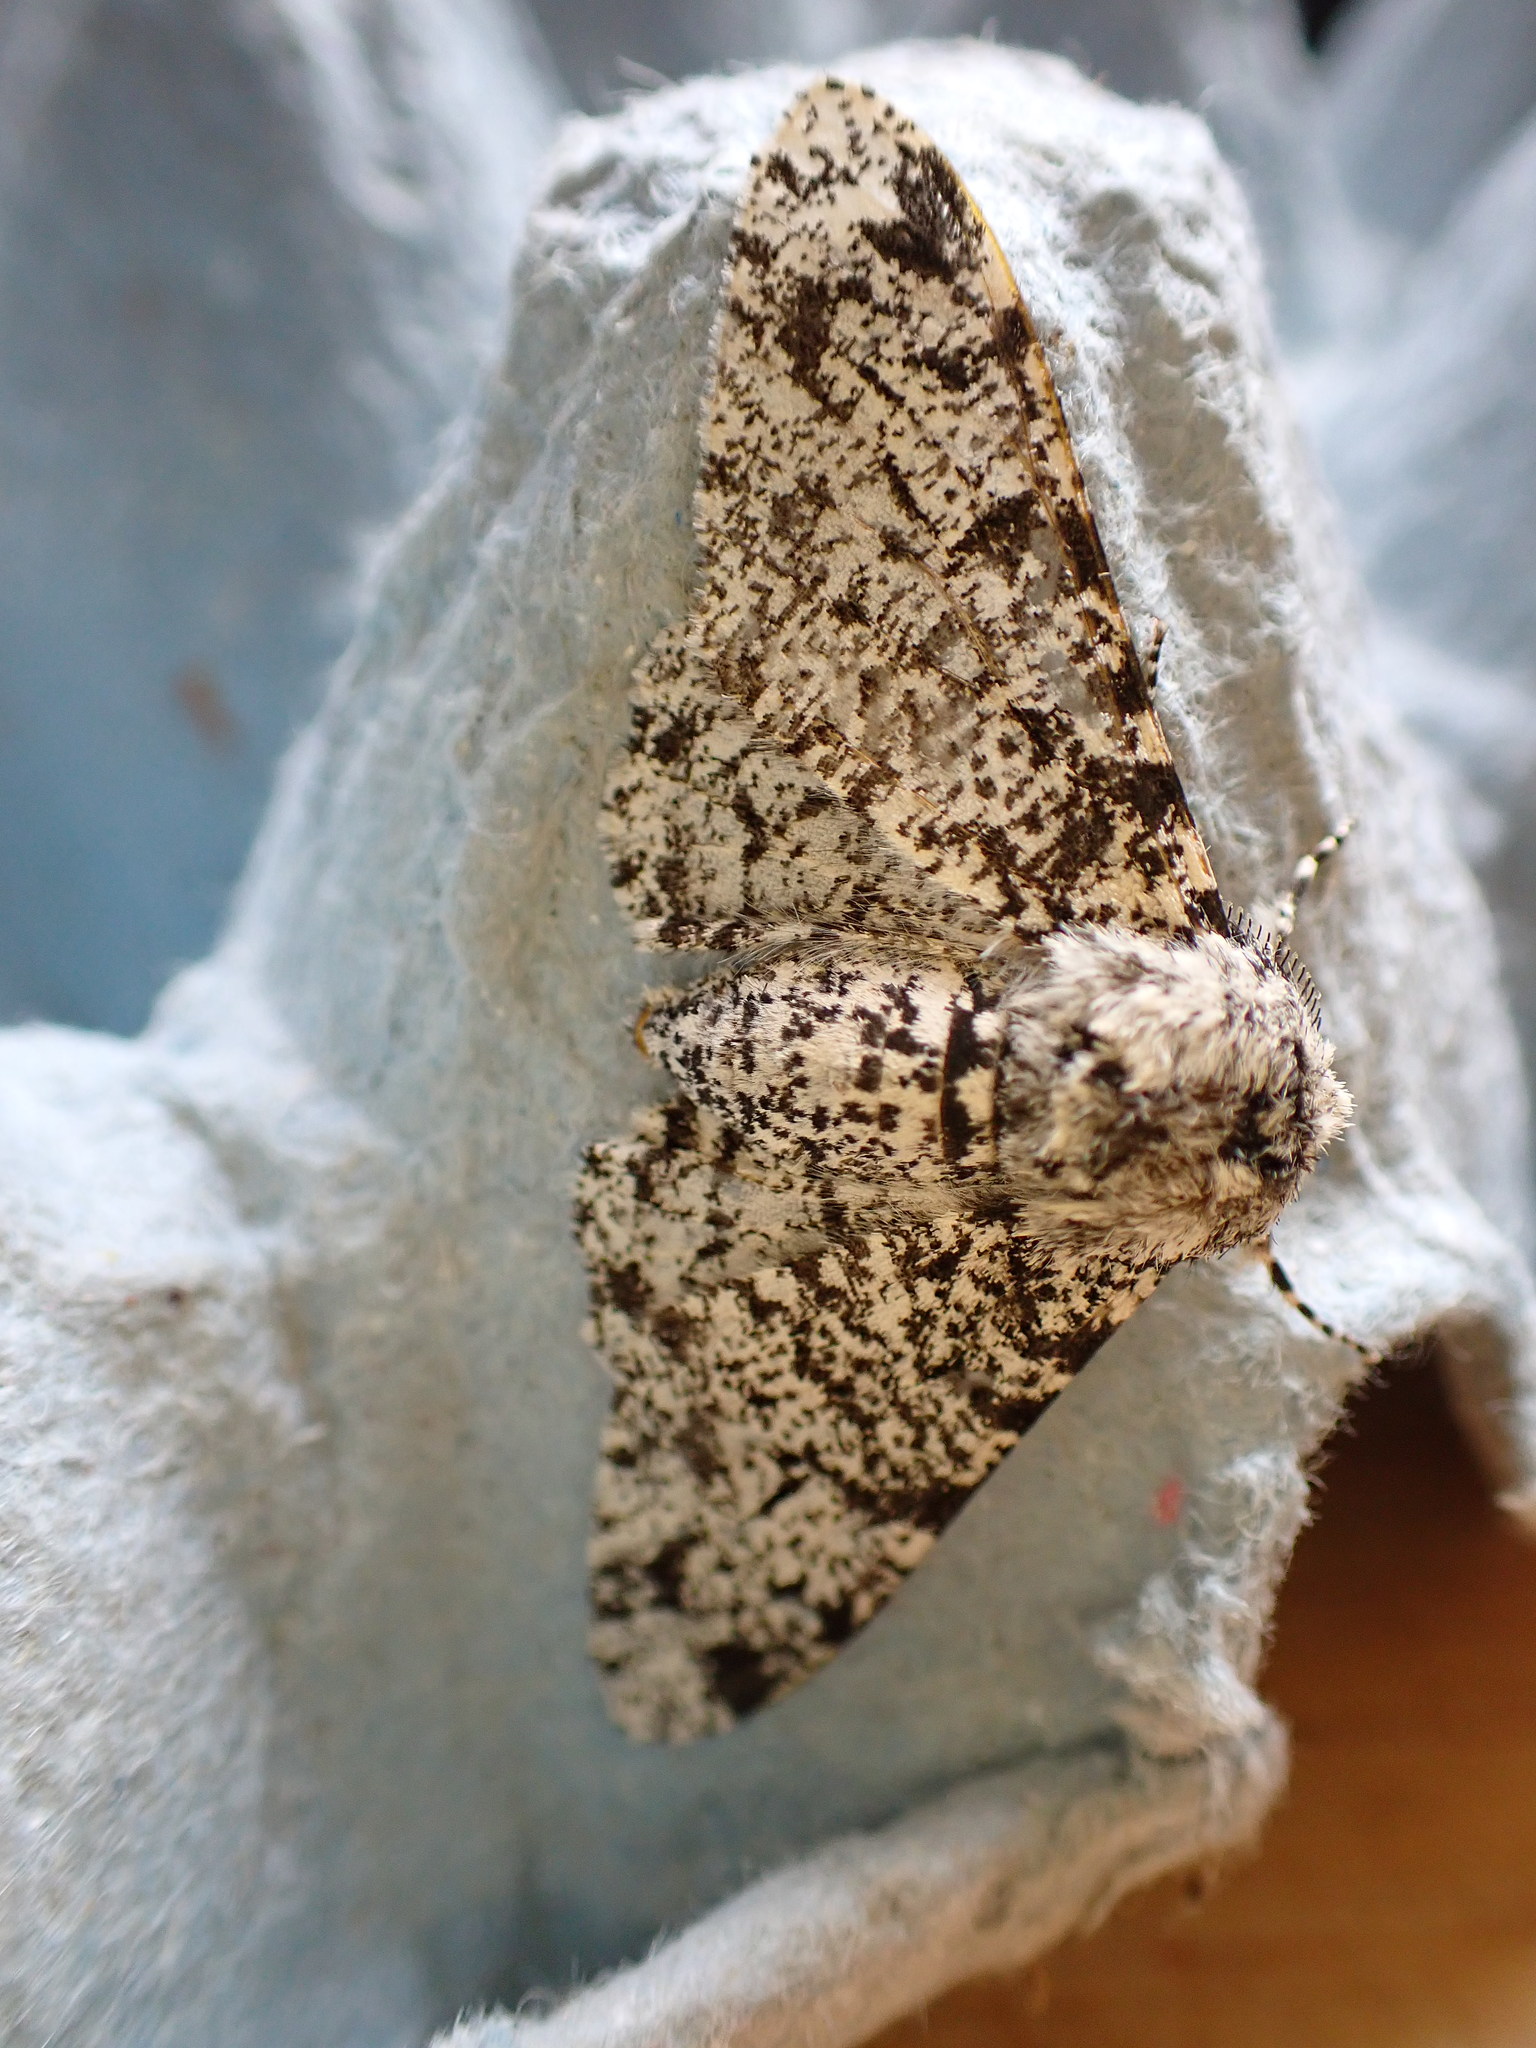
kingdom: Animalia
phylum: Arthropoda
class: Insecta
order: Lepidoptera
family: Geometridae
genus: Biston
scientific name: Biston betularia
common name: Peppered moth
